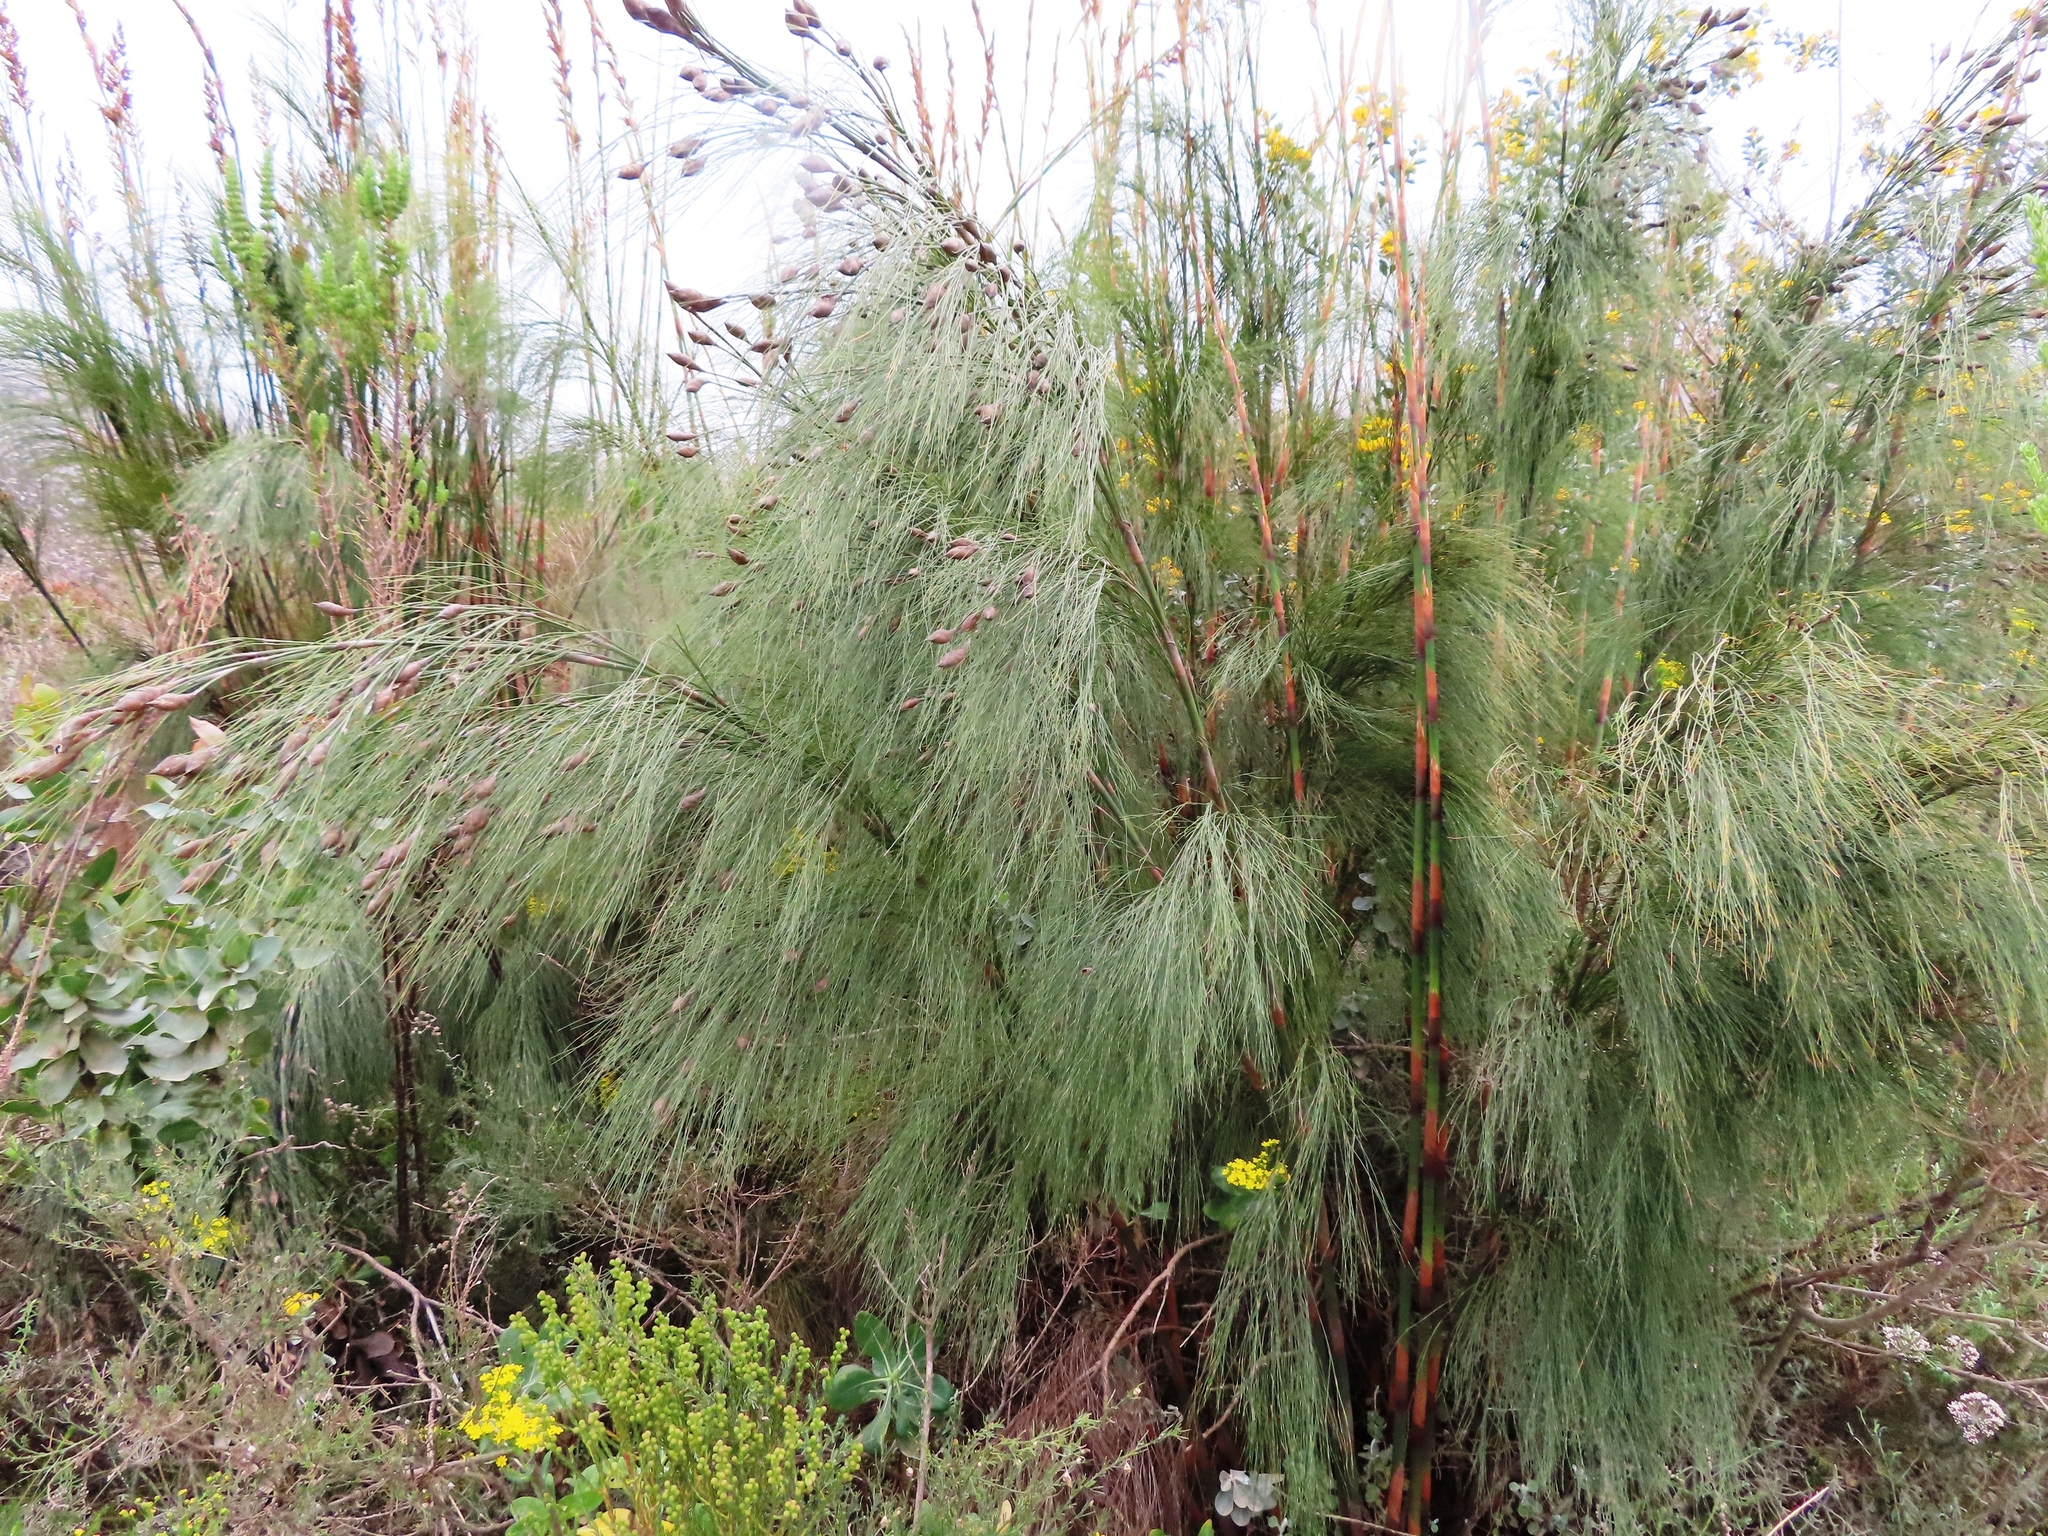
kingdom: Plantae
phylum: Tracheophyta
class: Liliopsida
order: Poales
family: Restionaceae
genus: Cannomois
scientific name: Cannomois virgata
